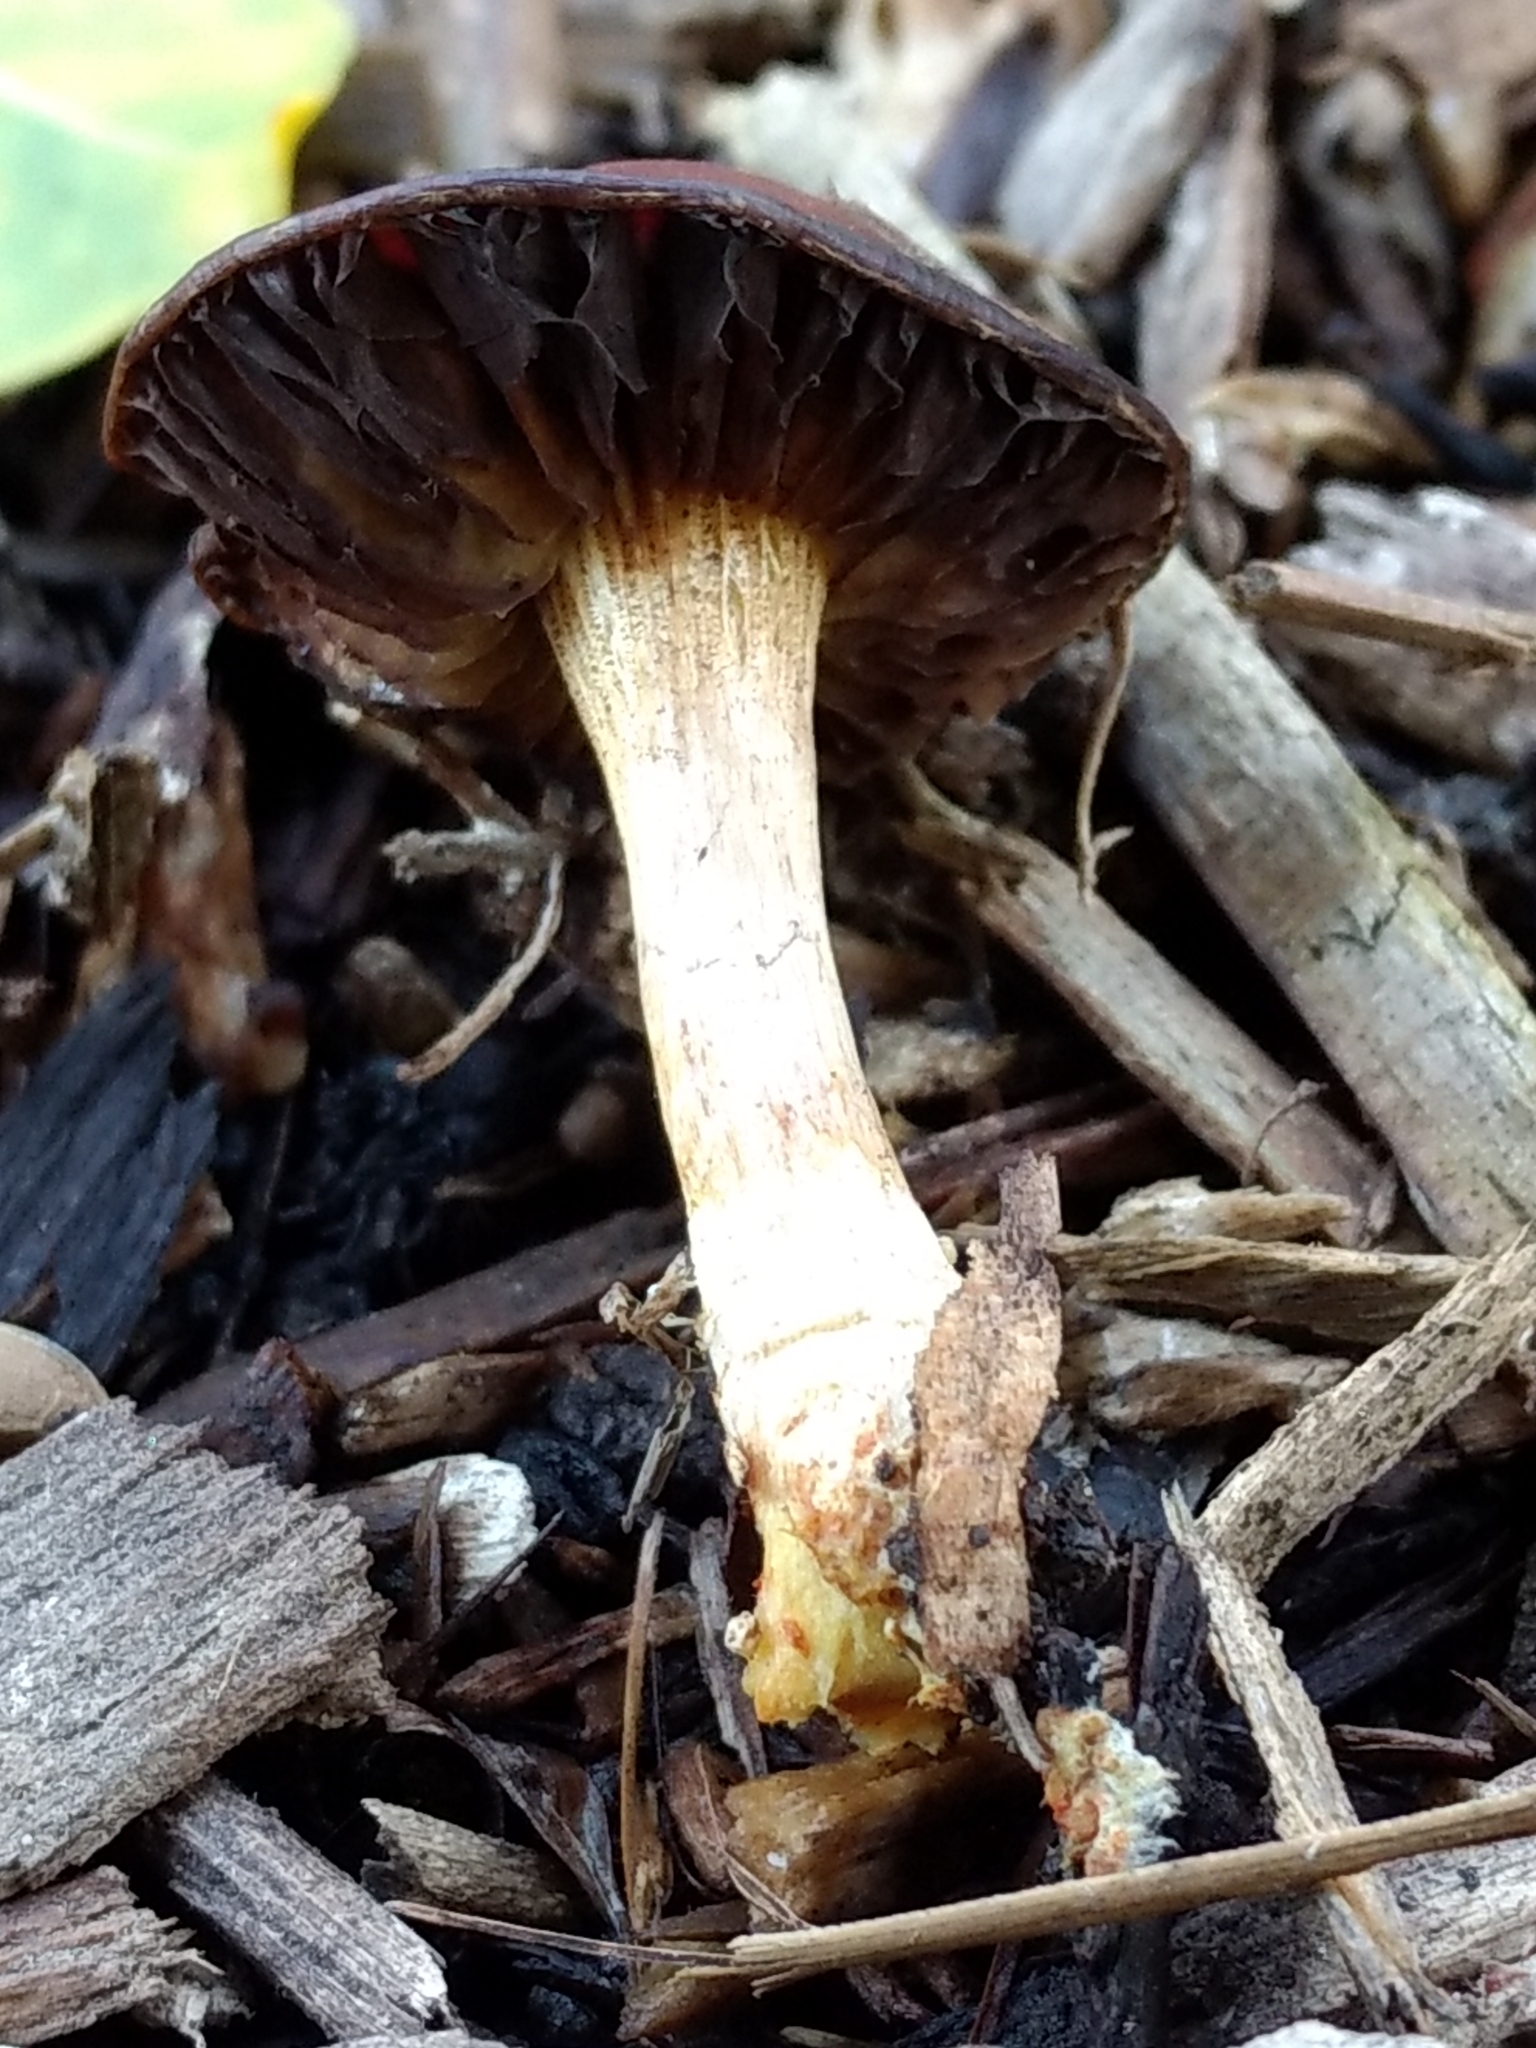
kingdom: Fungi
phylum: Basidiomycota
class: Agaricomycetes
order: Agaricales
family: Strophariaceae
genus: Leratiomyces
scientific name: Leratiomyces ceres
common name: Redlead roundhead
